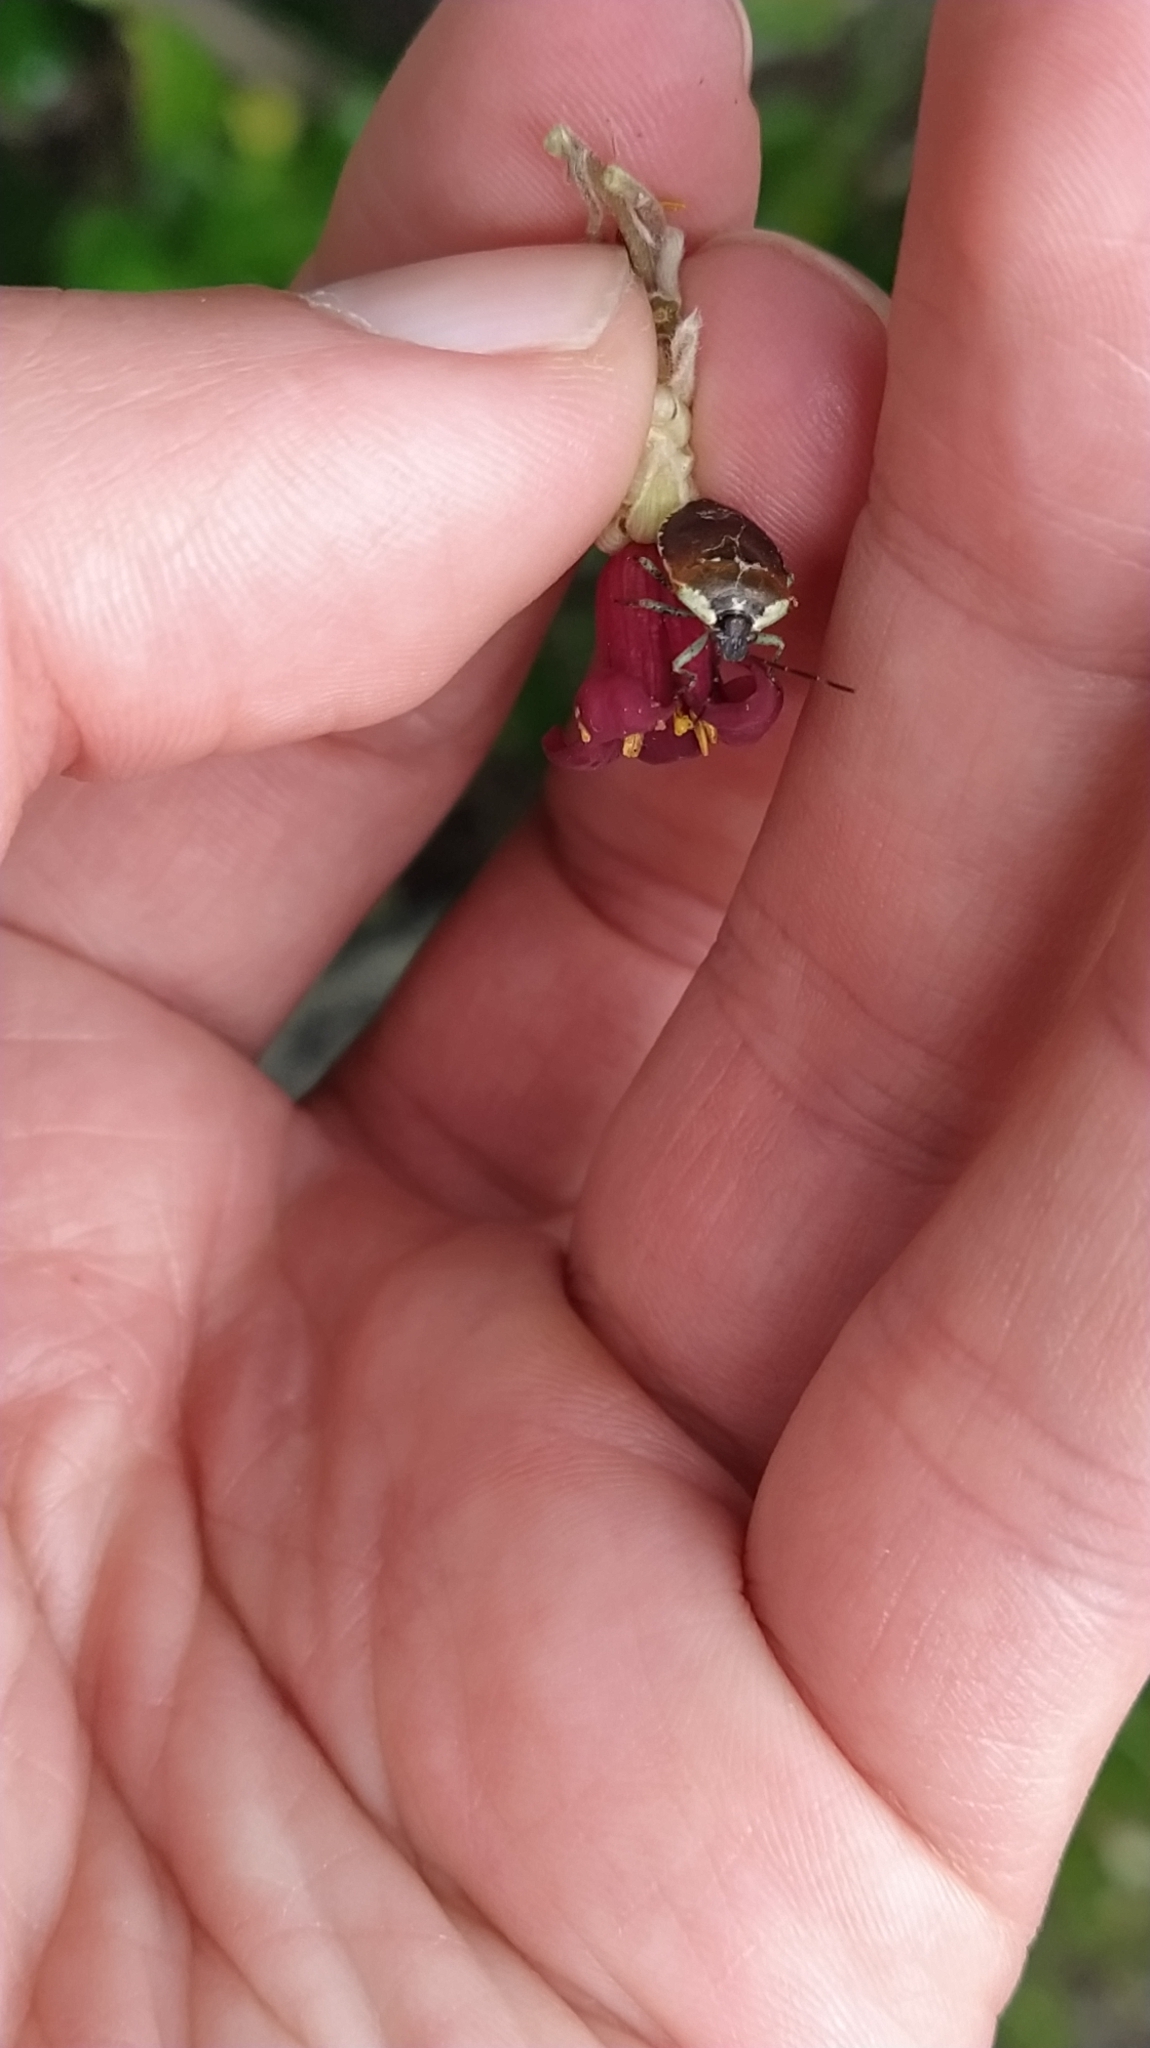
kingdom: Animalia
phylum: Arthropoda
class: Insecta
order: Hemiptera
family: Pentatomidae
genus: Monteithiella
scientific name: Monteithiella
